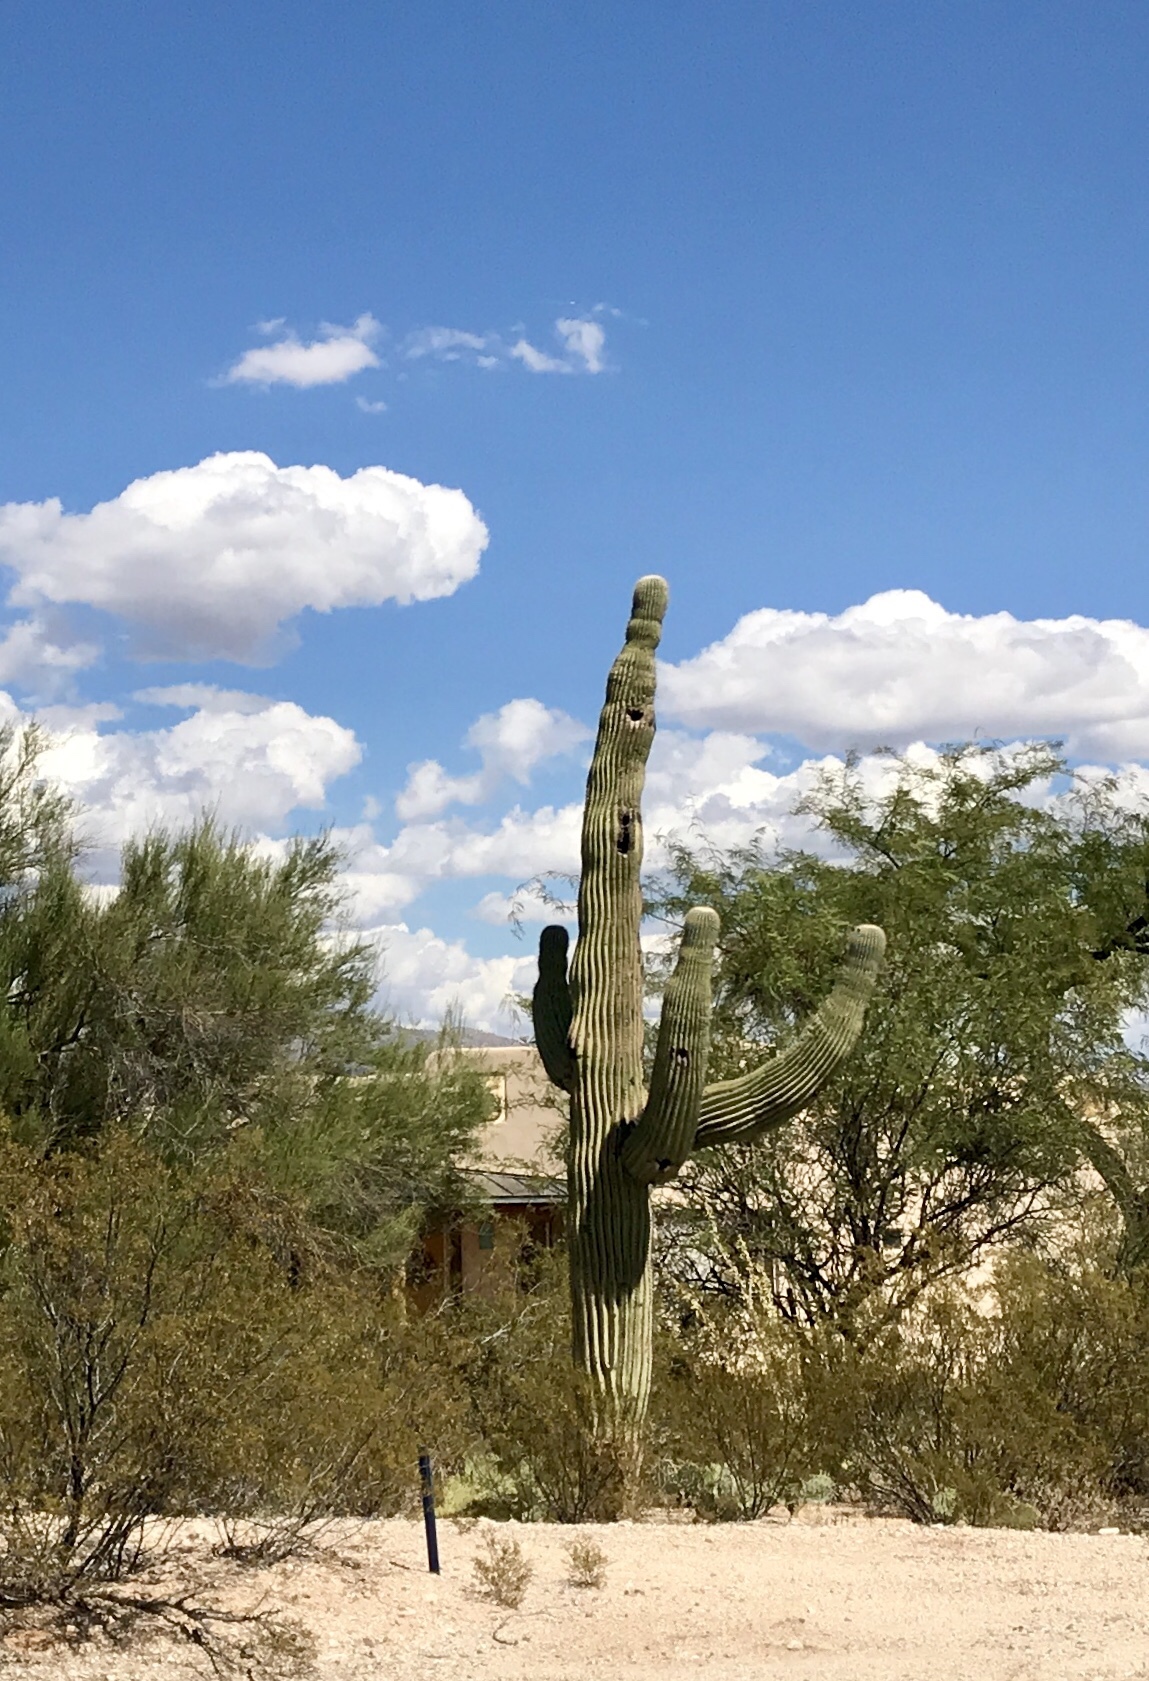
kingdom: Plantae
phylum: Tracheophyta
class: Magnoliopsida
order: Caryophyllales
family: Cactaceae
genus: Carnegiea
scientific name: Carnegiea gigantea
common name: Saguaro
